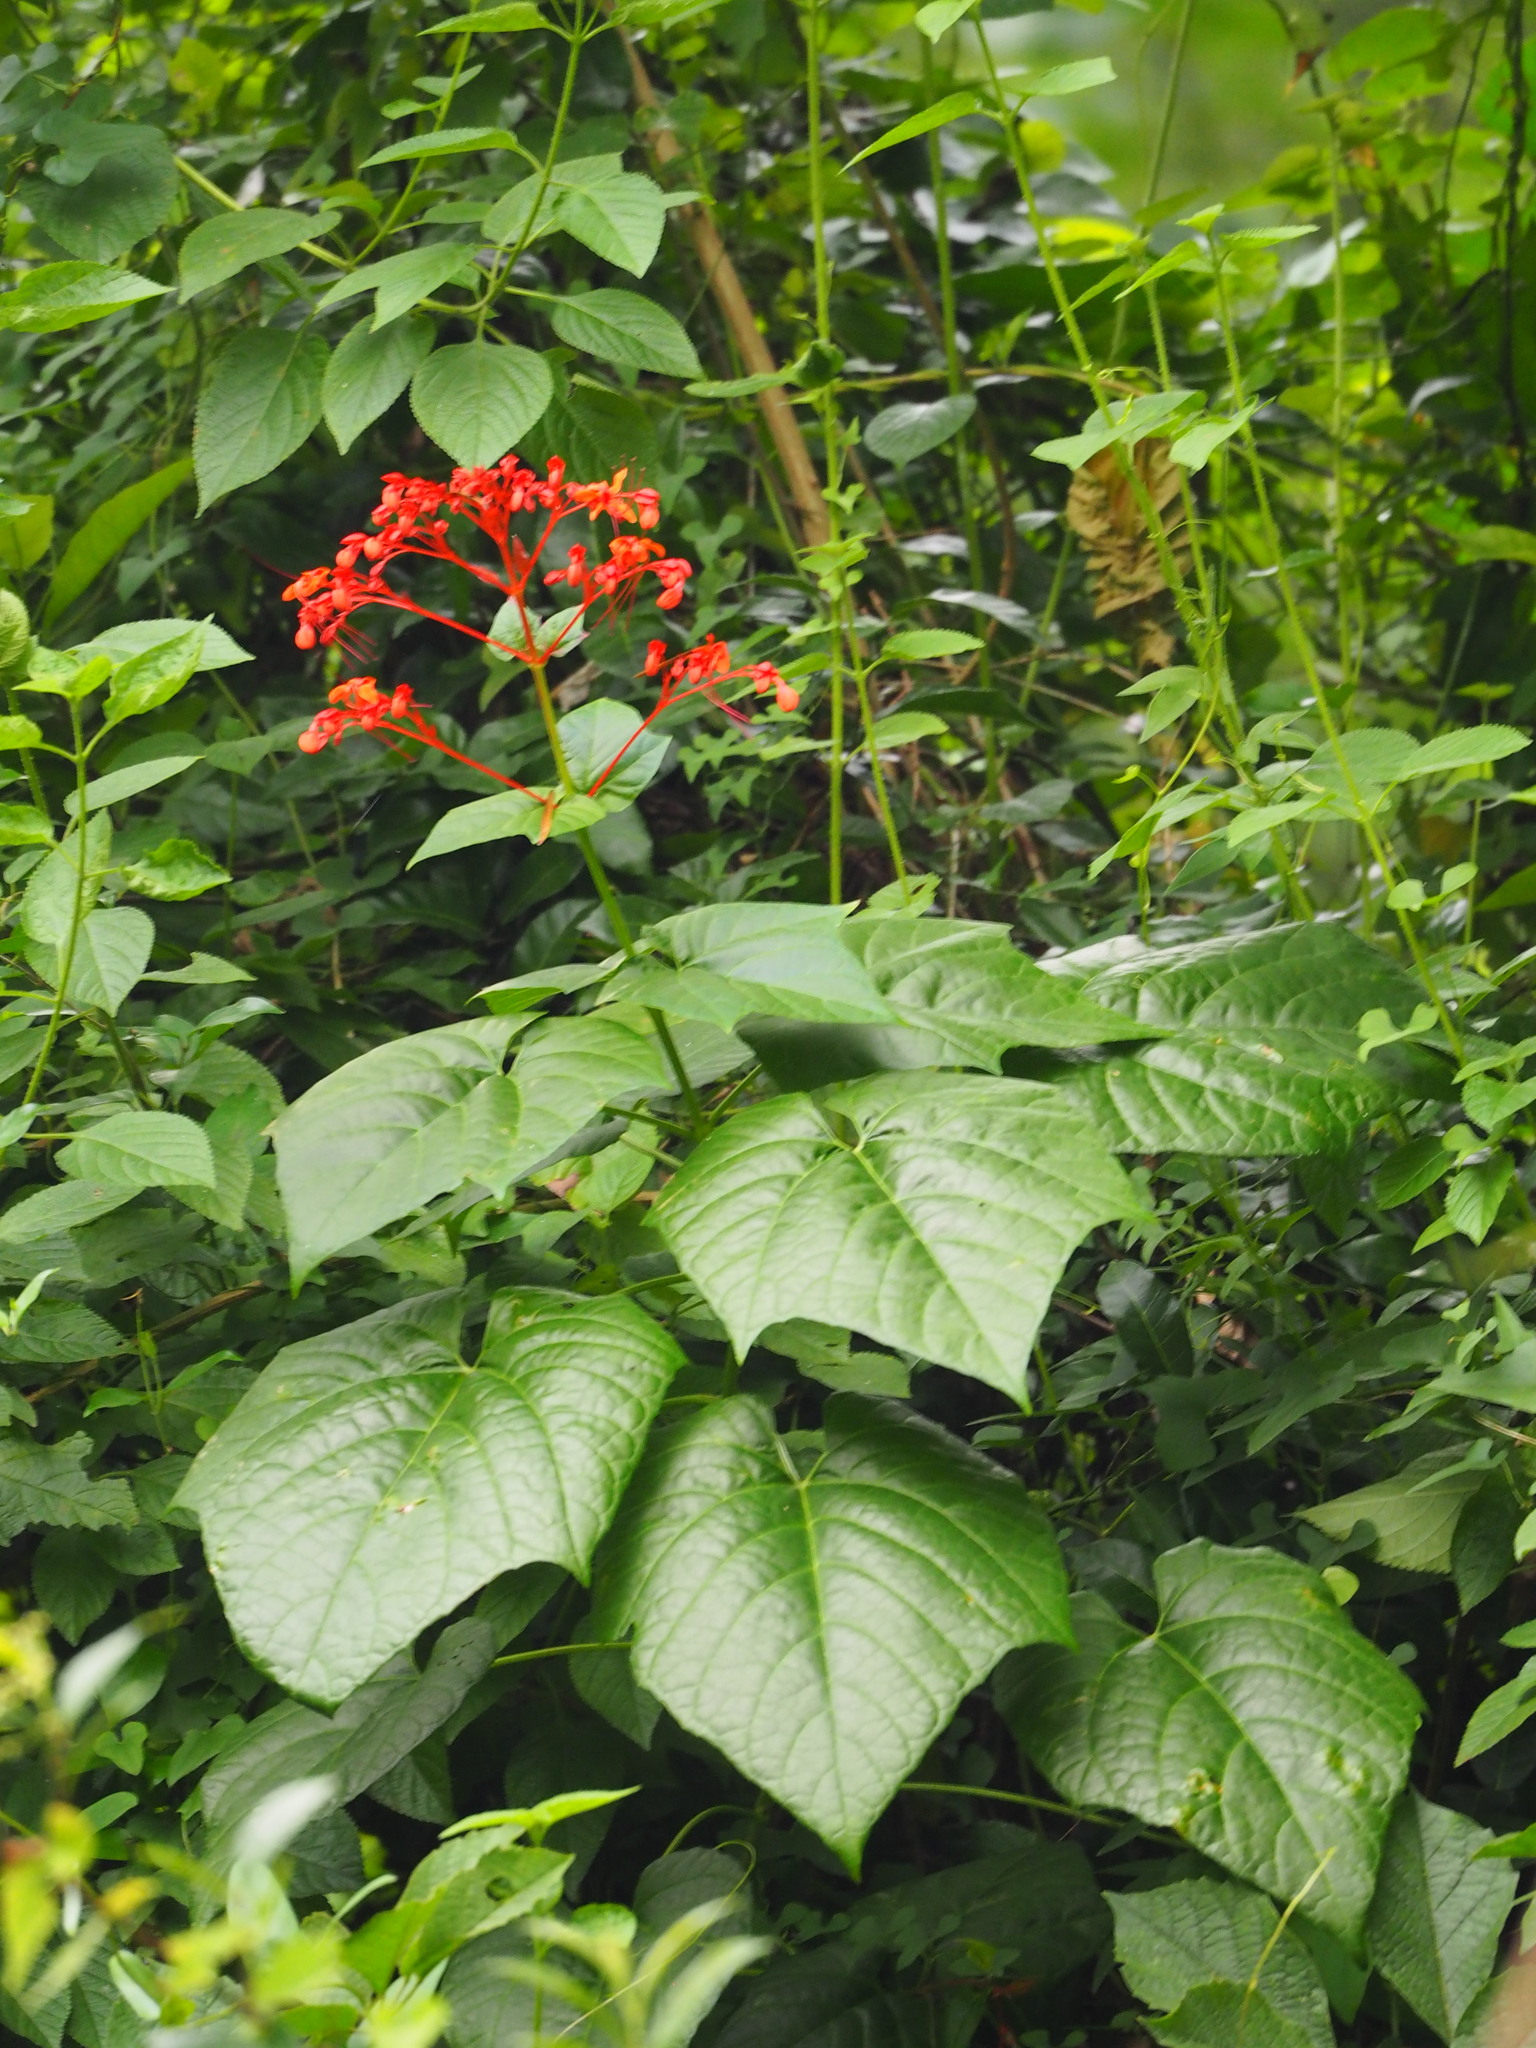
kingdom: Plantae
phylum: Tracheophyta
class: Magnoliopsida
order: Lamiales
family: Lamiaceae
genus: Clerodendrum
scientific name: Clerodendrum japonicum
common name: Japanese glorybower
